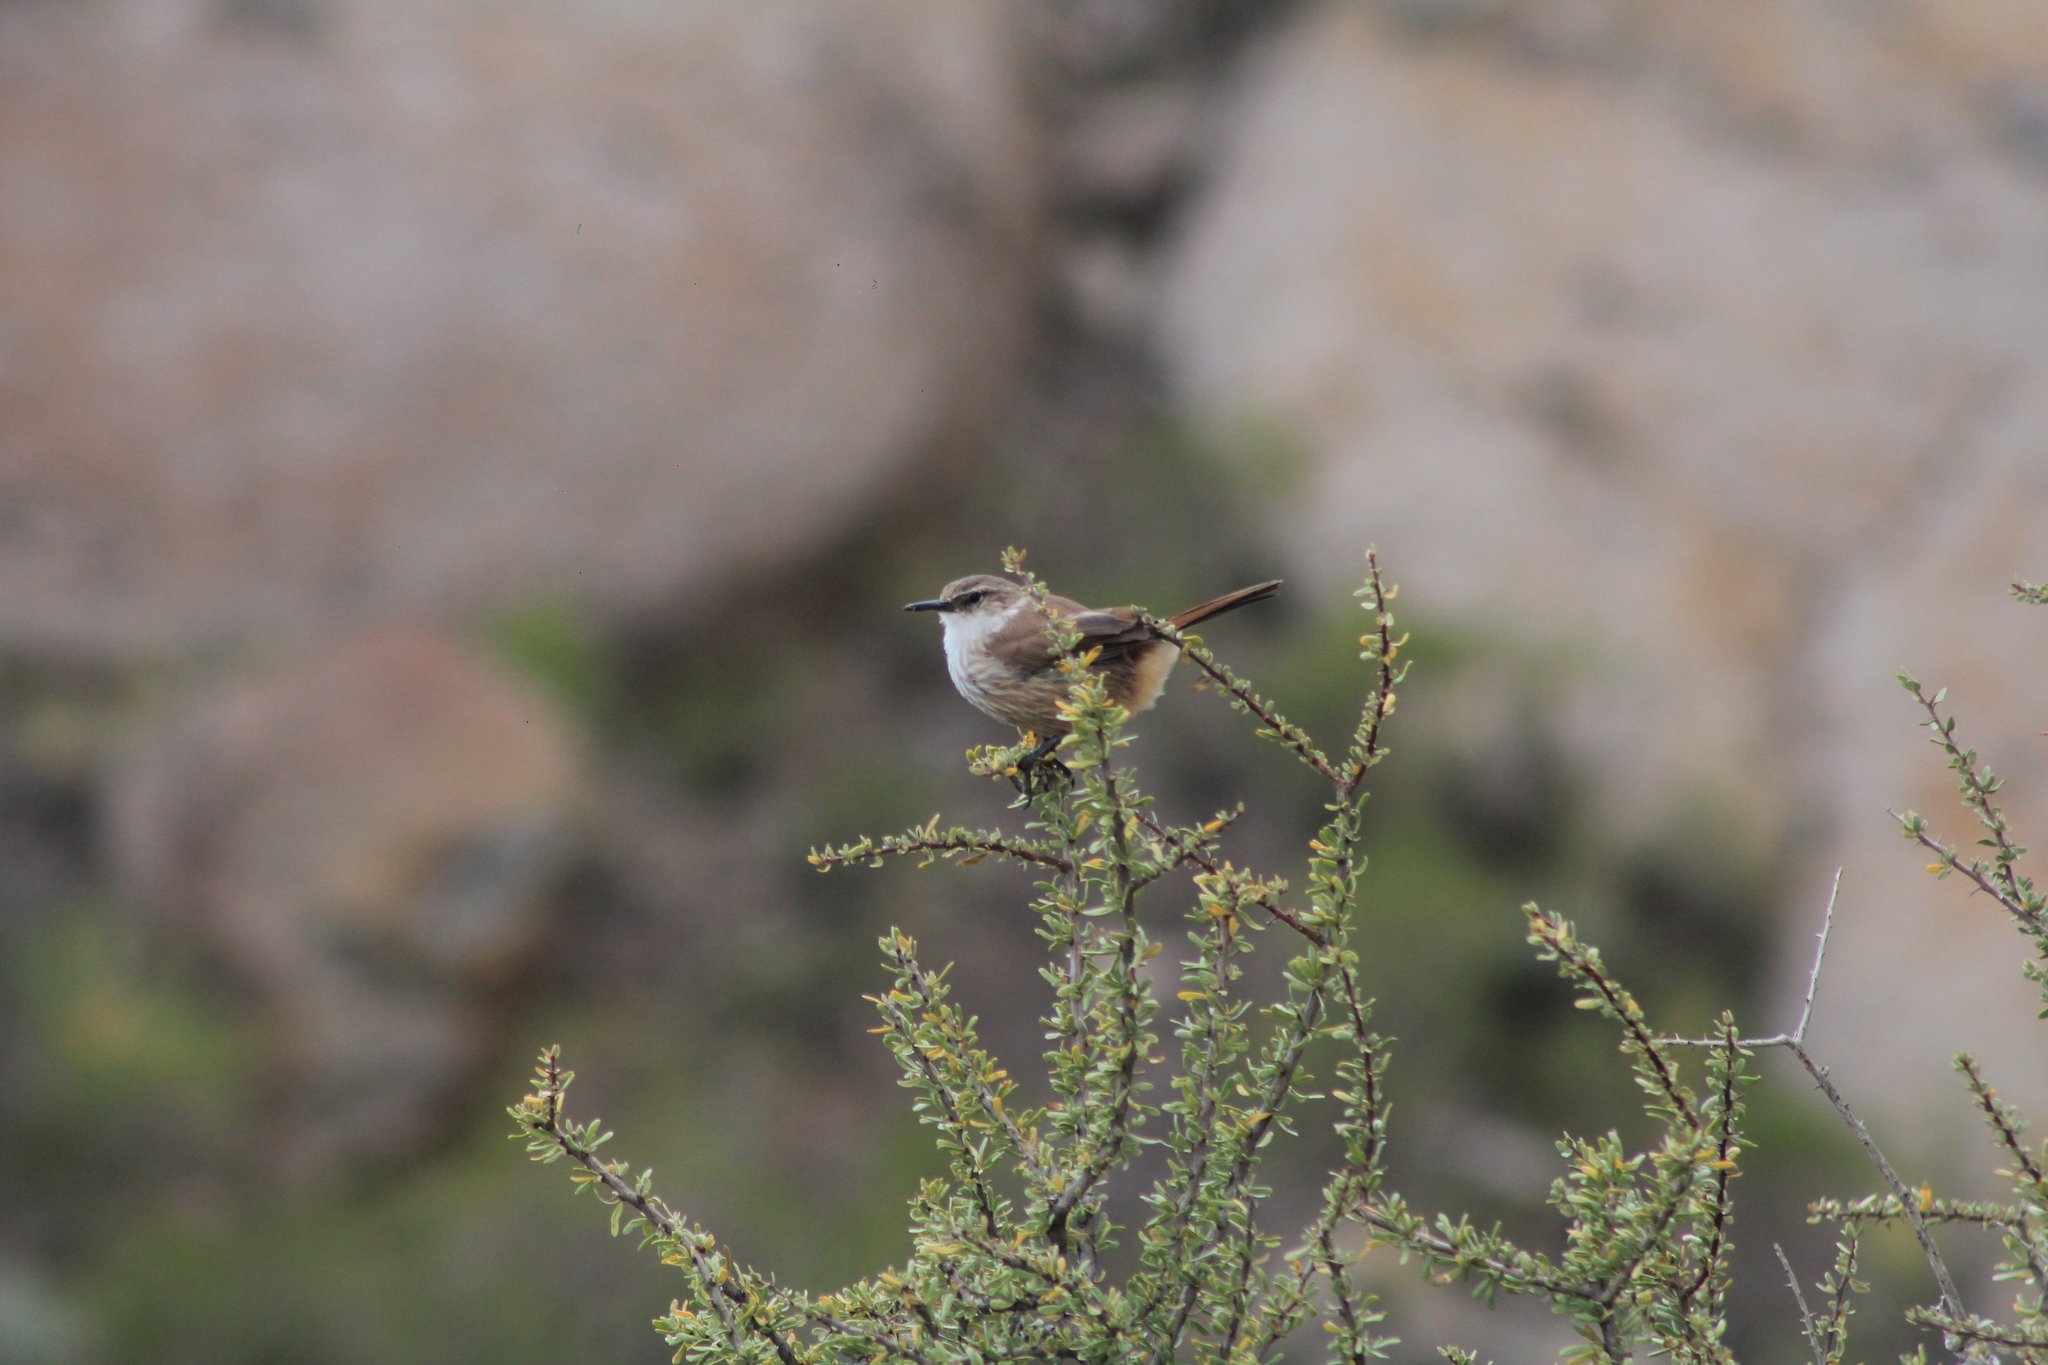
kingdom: Animalia
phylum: Chordata
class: Aves
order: Passeriformes
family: Furnariidae
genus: Upucerthia
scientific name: Upucerthia ruficaudus
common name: Straight-billed earthcreeper
